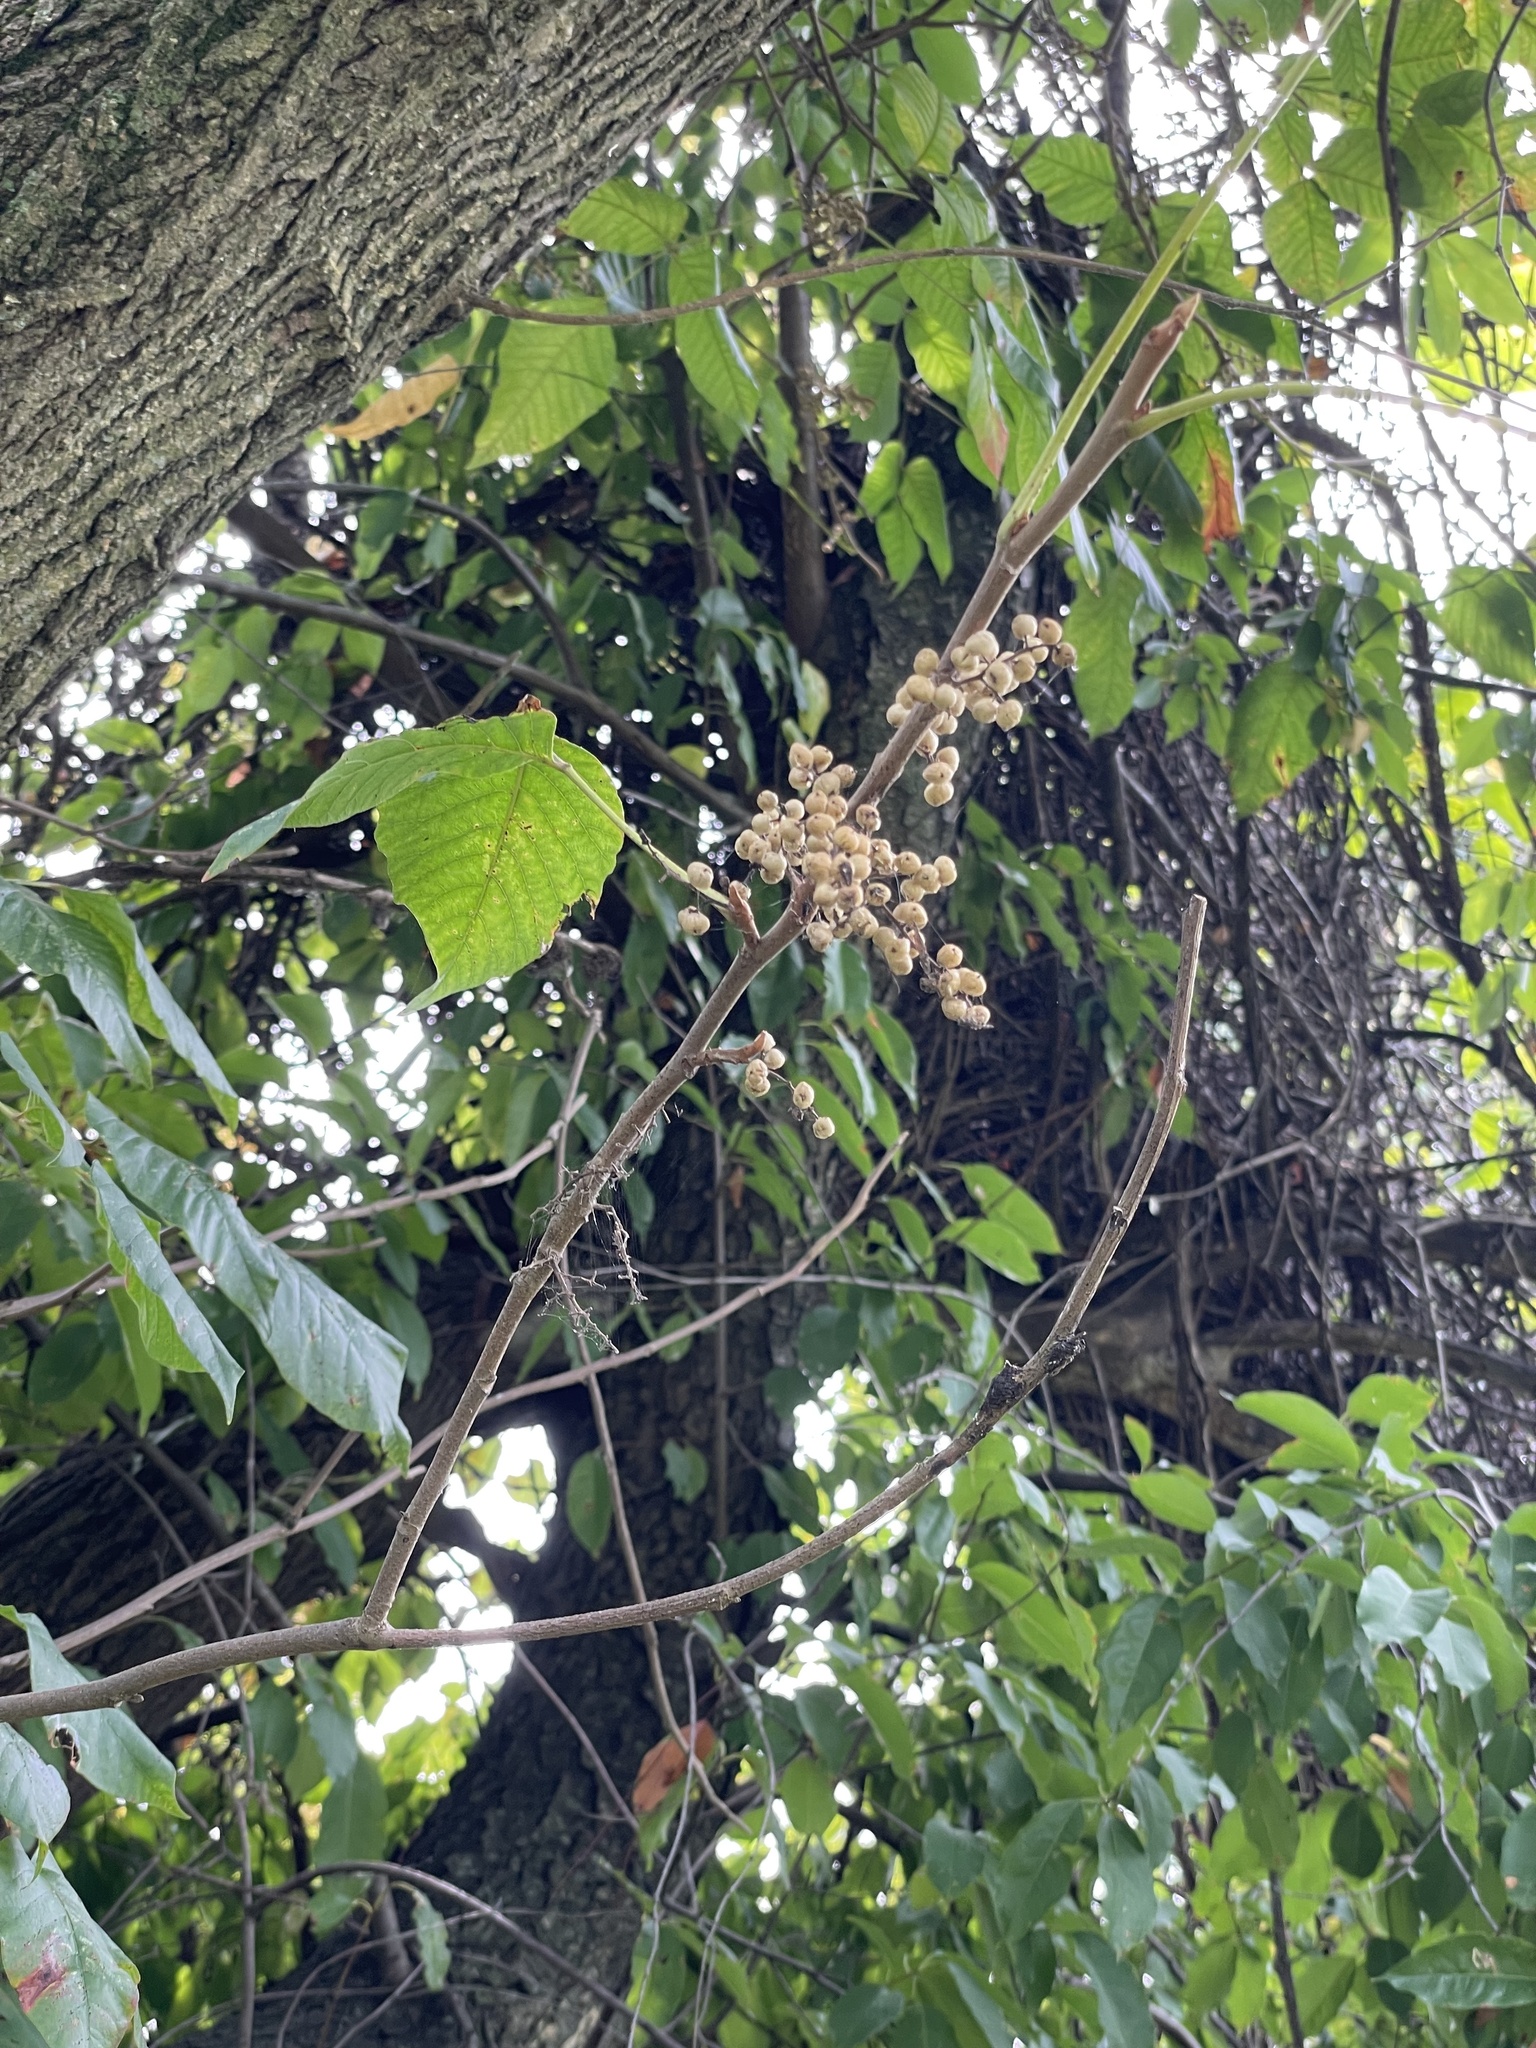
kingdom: Plantae
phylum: Tracheophyta
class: Magnoliopsida
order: Sapindales
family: Anacardiaceae
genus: Toxicodendron
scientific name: Toxicodendron radicans
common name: Poison ivy
